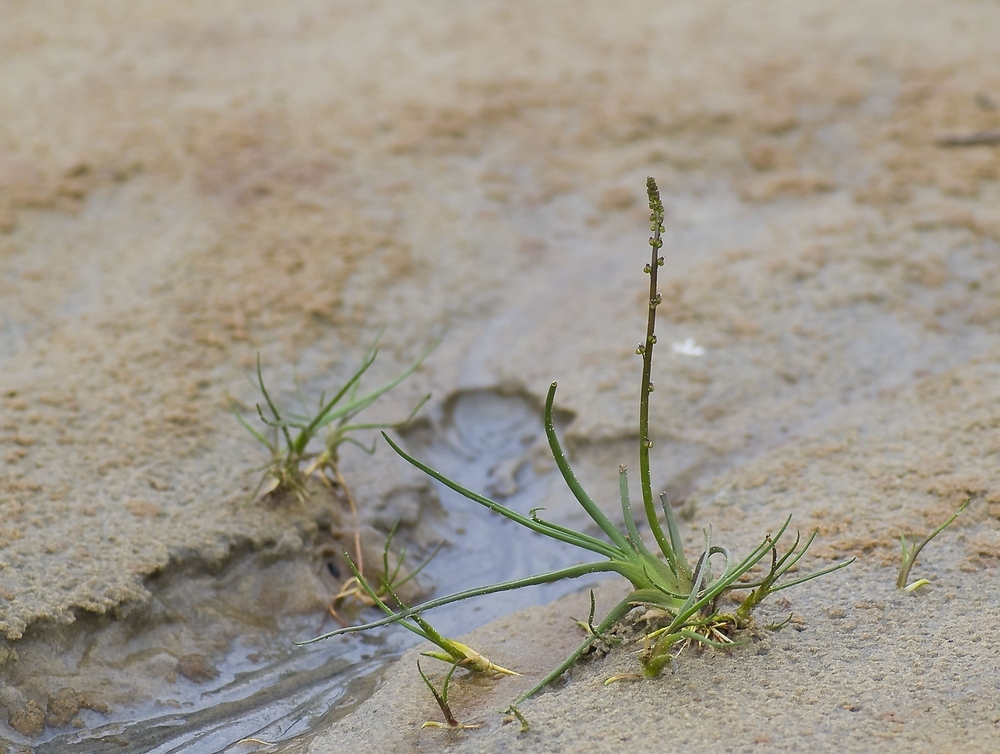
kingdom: Plantae
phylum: Tracheophyta
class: Liliopsida
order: Alismatales
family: Juncaginaceae
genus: Triglochin
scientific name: Triglochin maritima
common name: Sea arrowgrass
